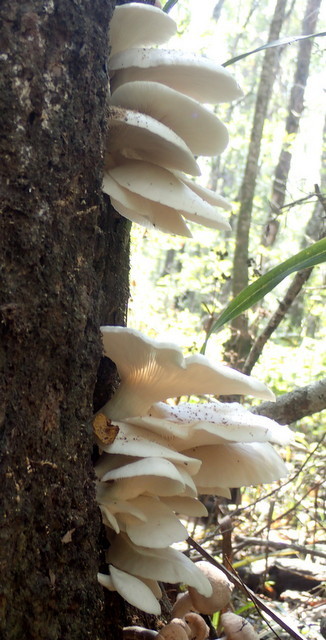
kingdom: Fungi
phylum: Basidiomycota
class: Agaricomycetes
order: Agaricales
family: Pleurotaceae
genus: Pleurotus
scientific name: Pleurotus ostreatus
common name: Oyster mushroom
